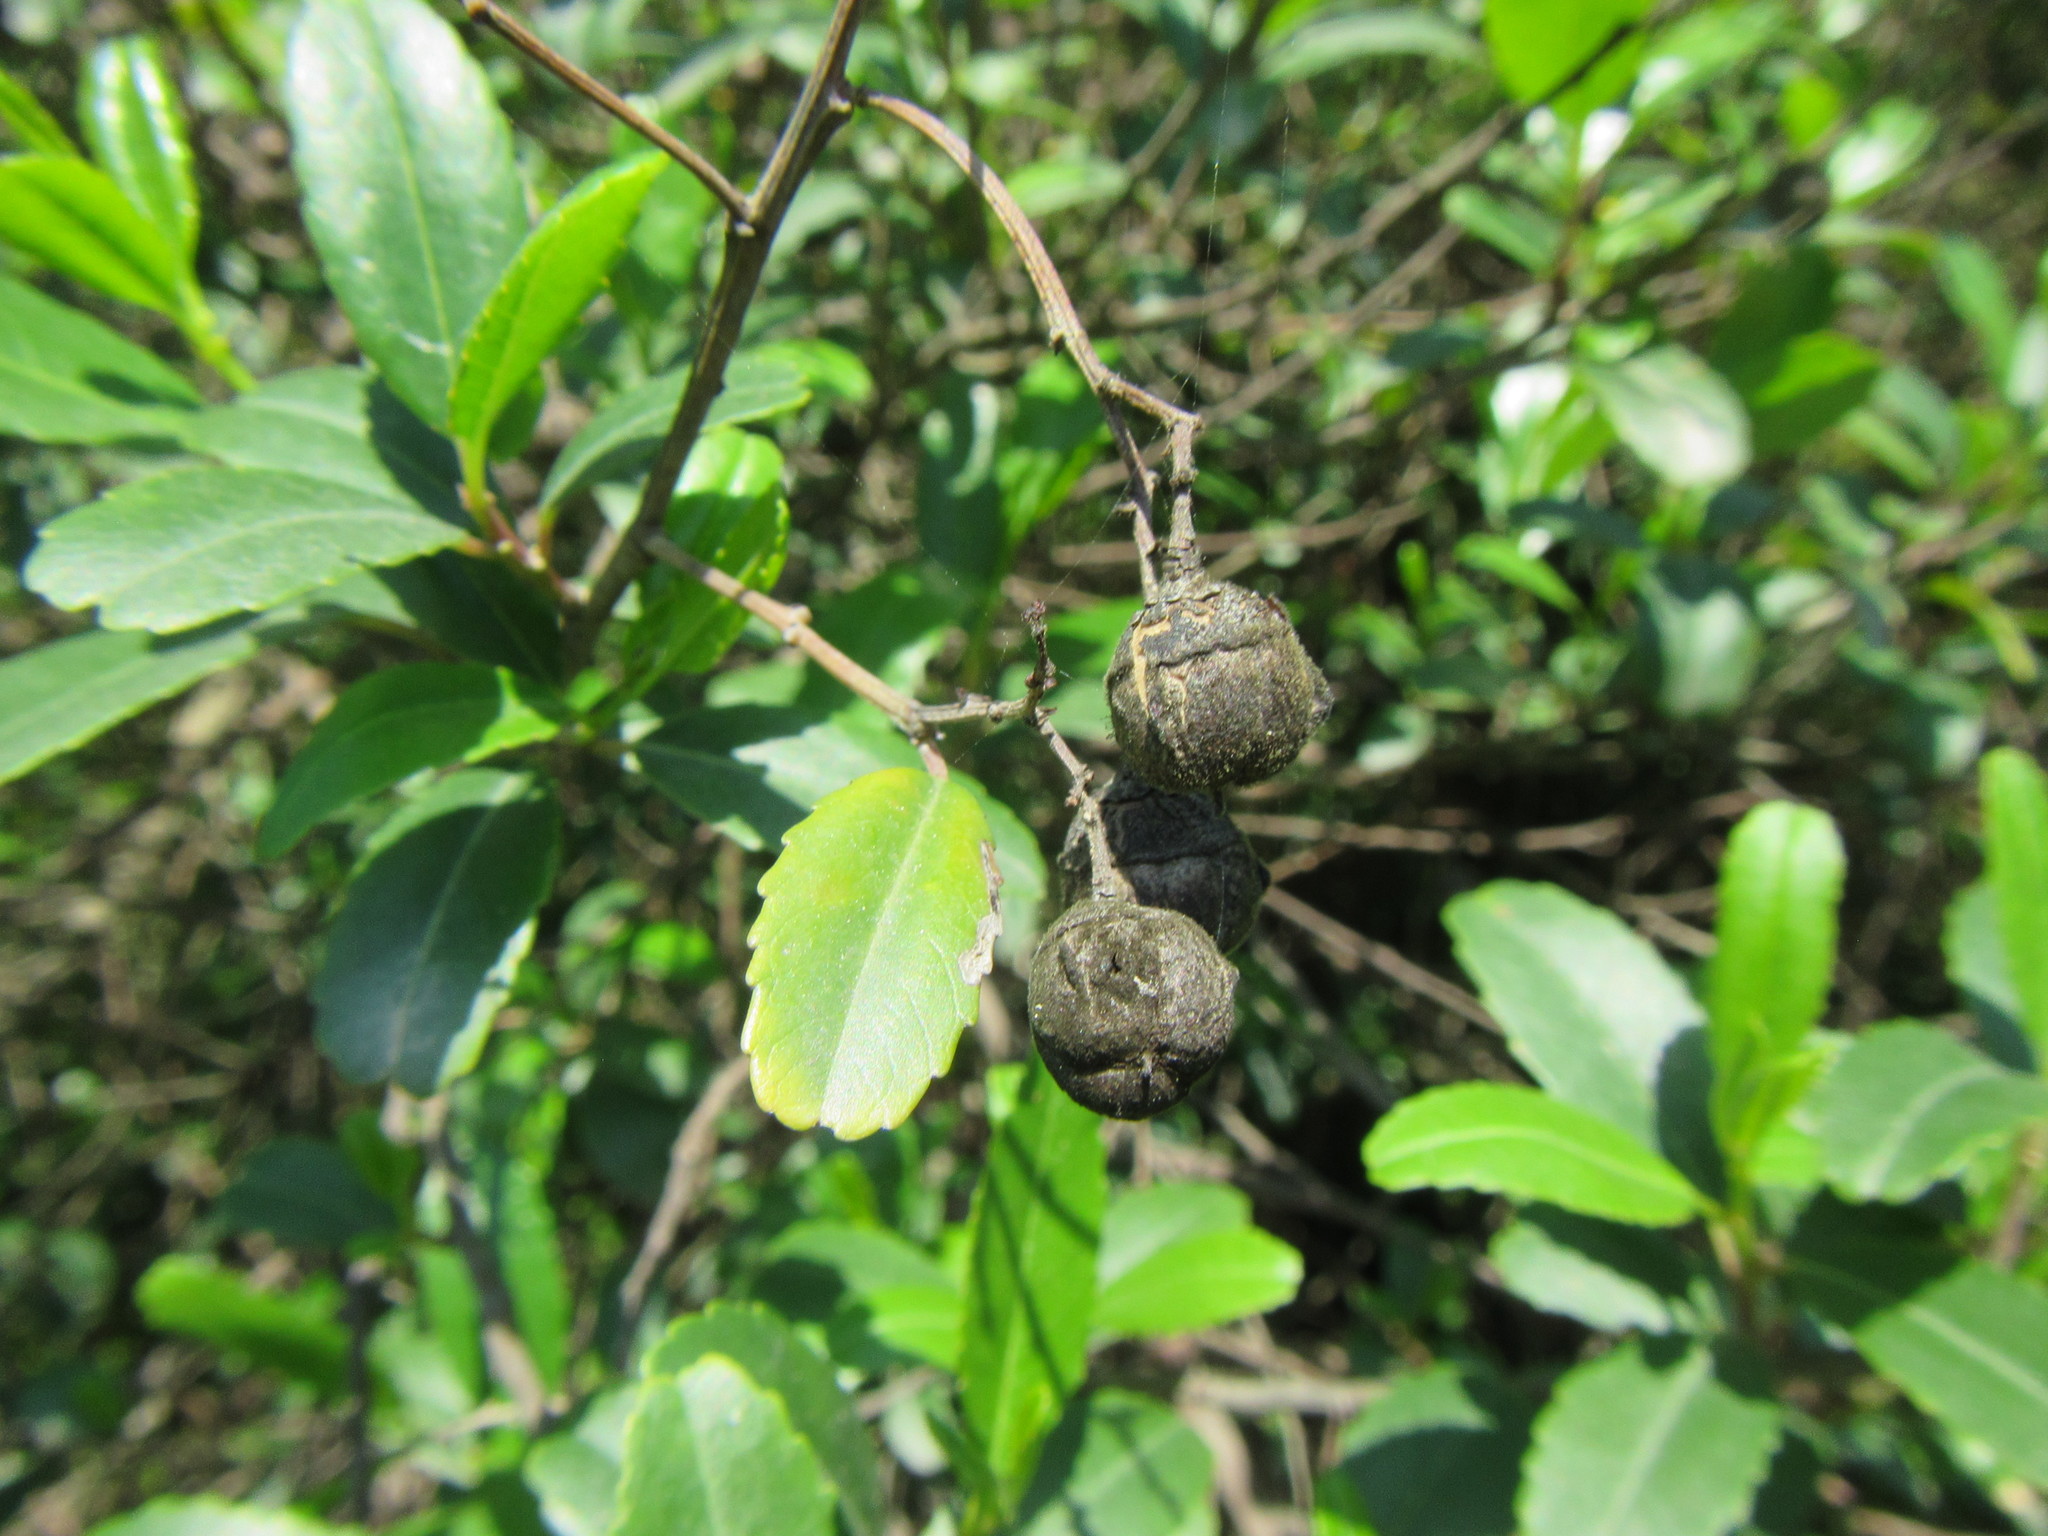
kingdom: Plantae
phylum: Tracheophyta
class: Magnoliopsida
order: Rosales
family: Rhamnaceae
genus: Noltea
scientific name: Noltea africana
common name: Soapbush
